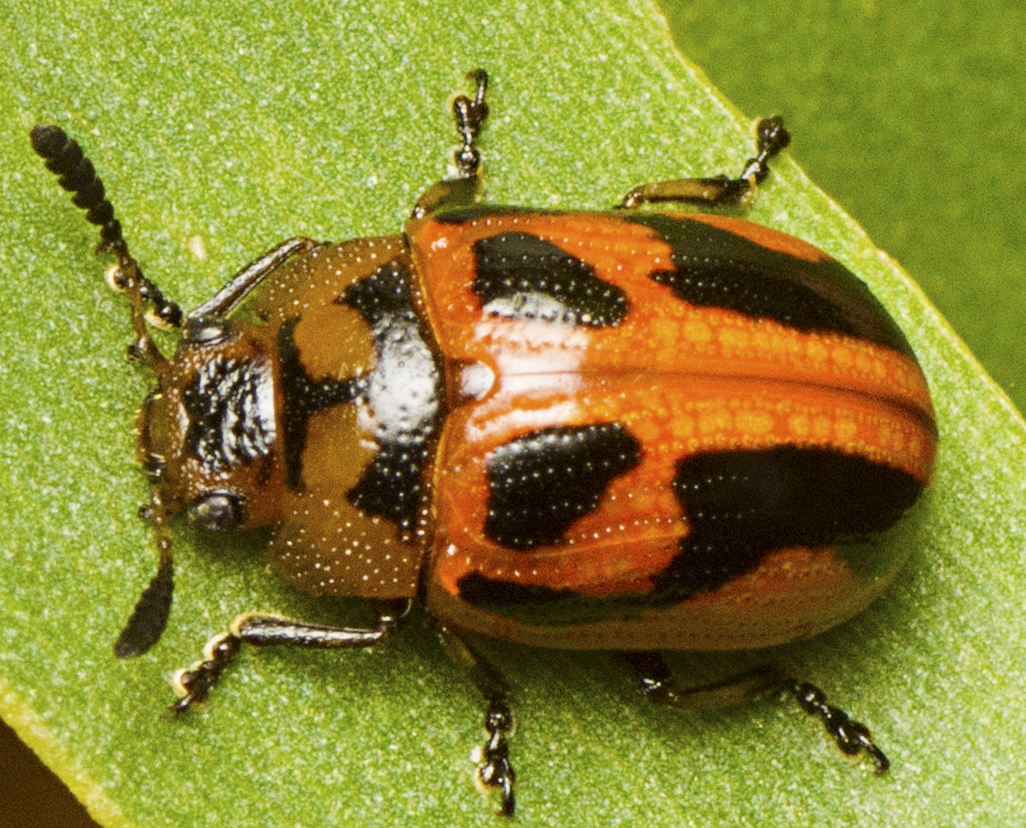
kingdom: Animalia
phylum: Arthropoda
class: Insecta
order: Coleoptera
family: Chrysomelidae
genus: Calomela
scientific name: Calomela
